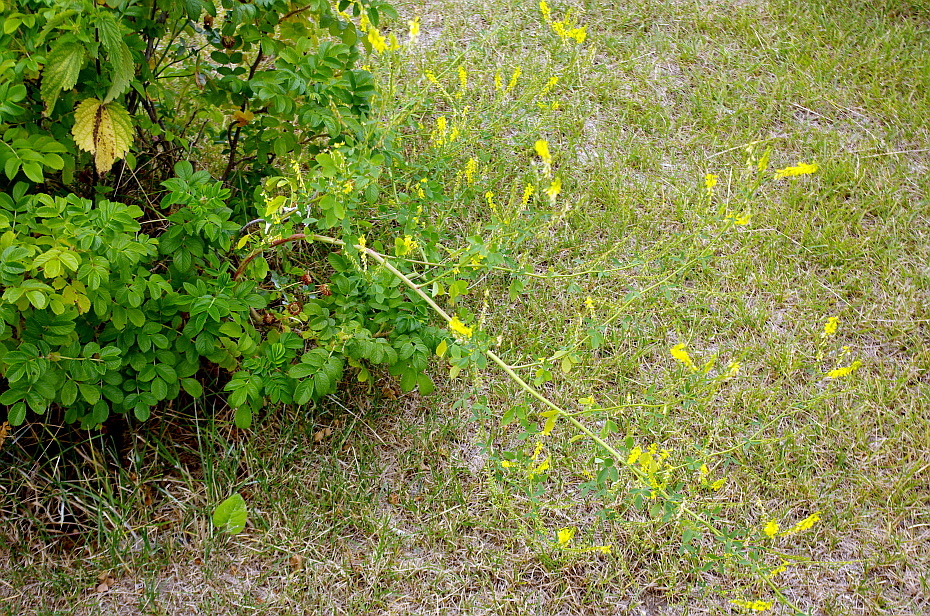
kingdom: Plantae
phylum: Tracheophyta
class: Magnoliopsida
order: Fabales
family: Fabaceae
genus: Melilotus
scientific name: Melilotus officinalis
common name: Sweetclover
